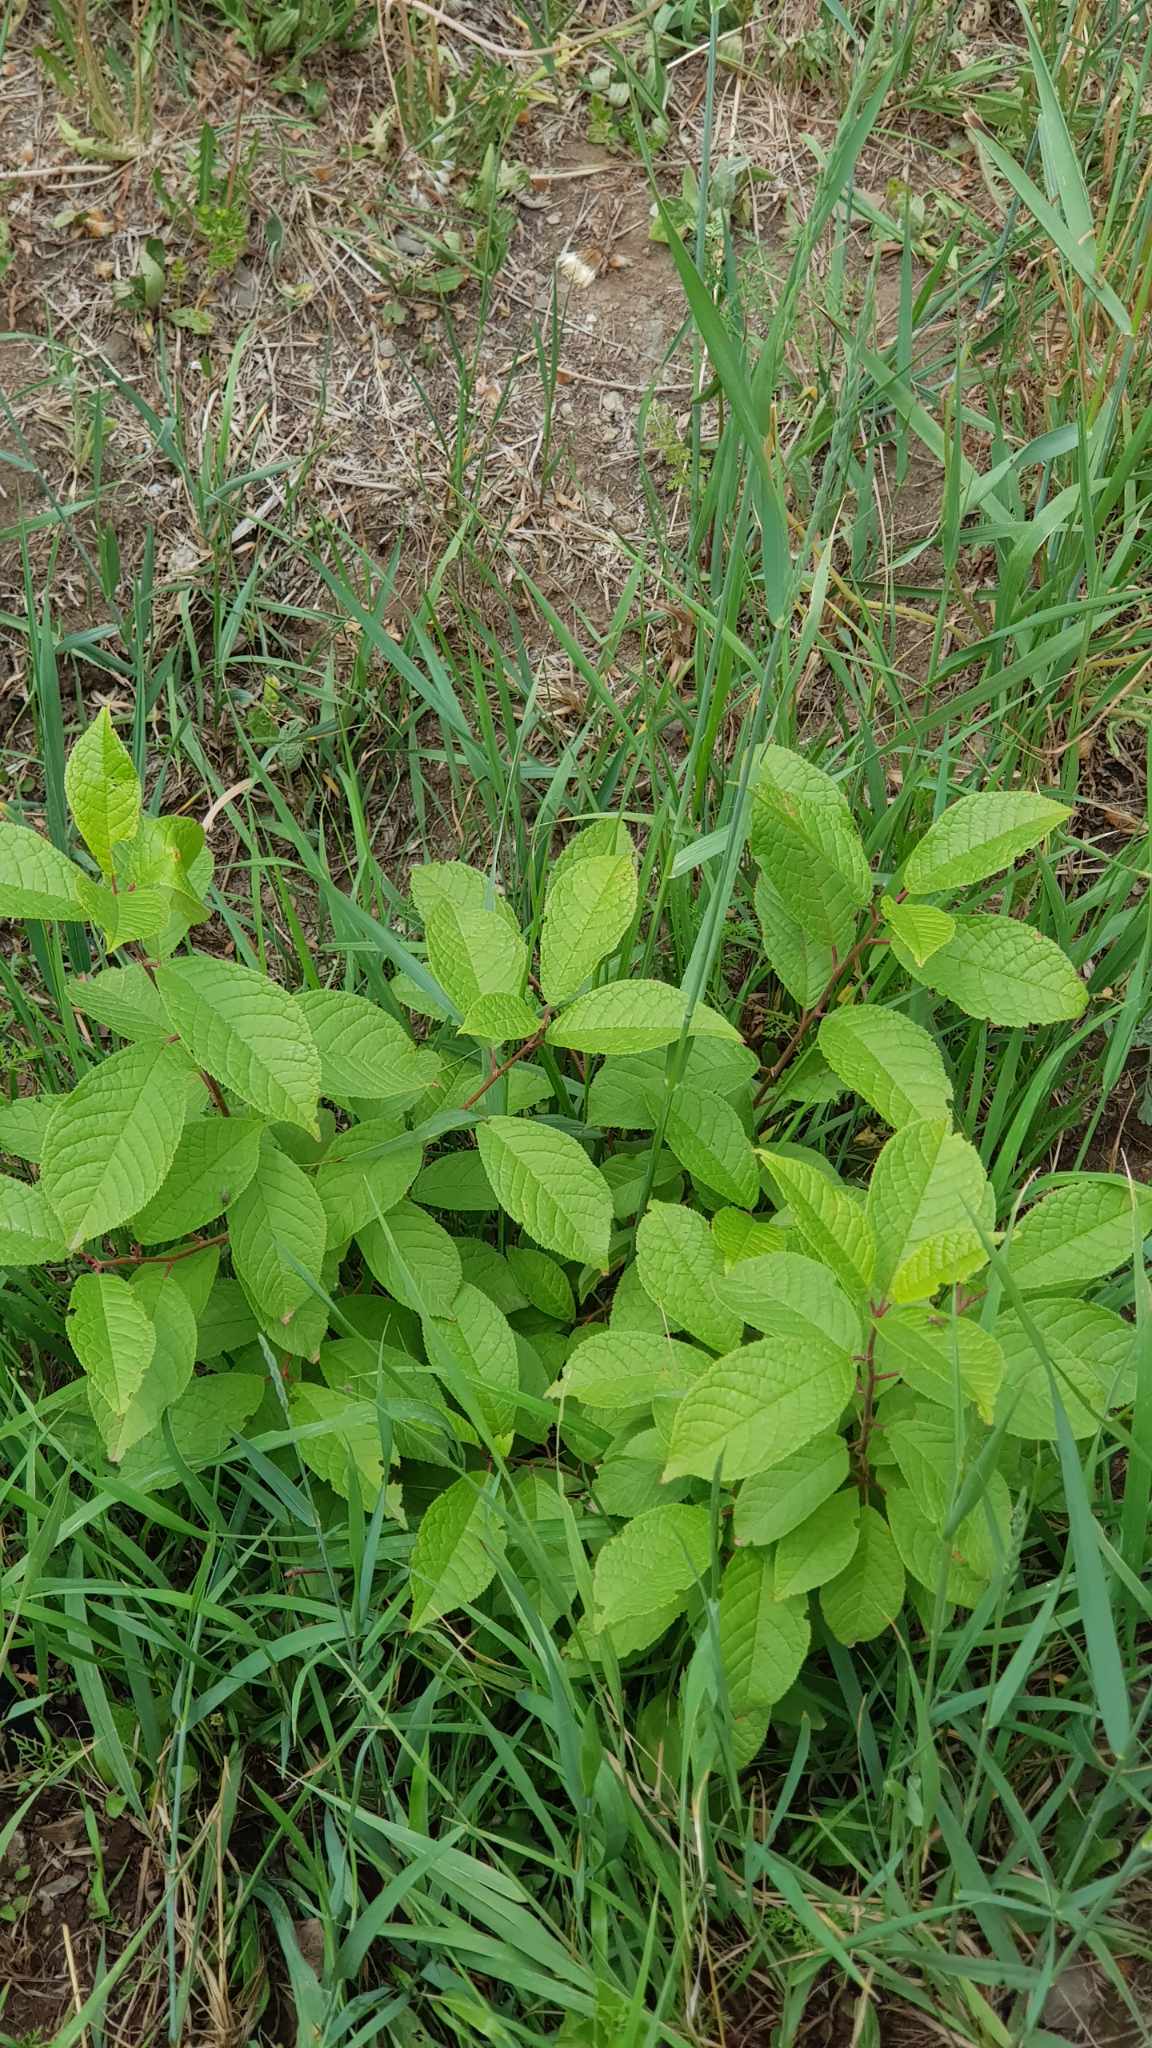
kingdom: Plantae
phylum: Tracheophyta
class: Magnoliopsida
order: Rosales
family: Rosaceae
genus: Prunus
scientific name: Prunus padus
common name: Bird cherry
